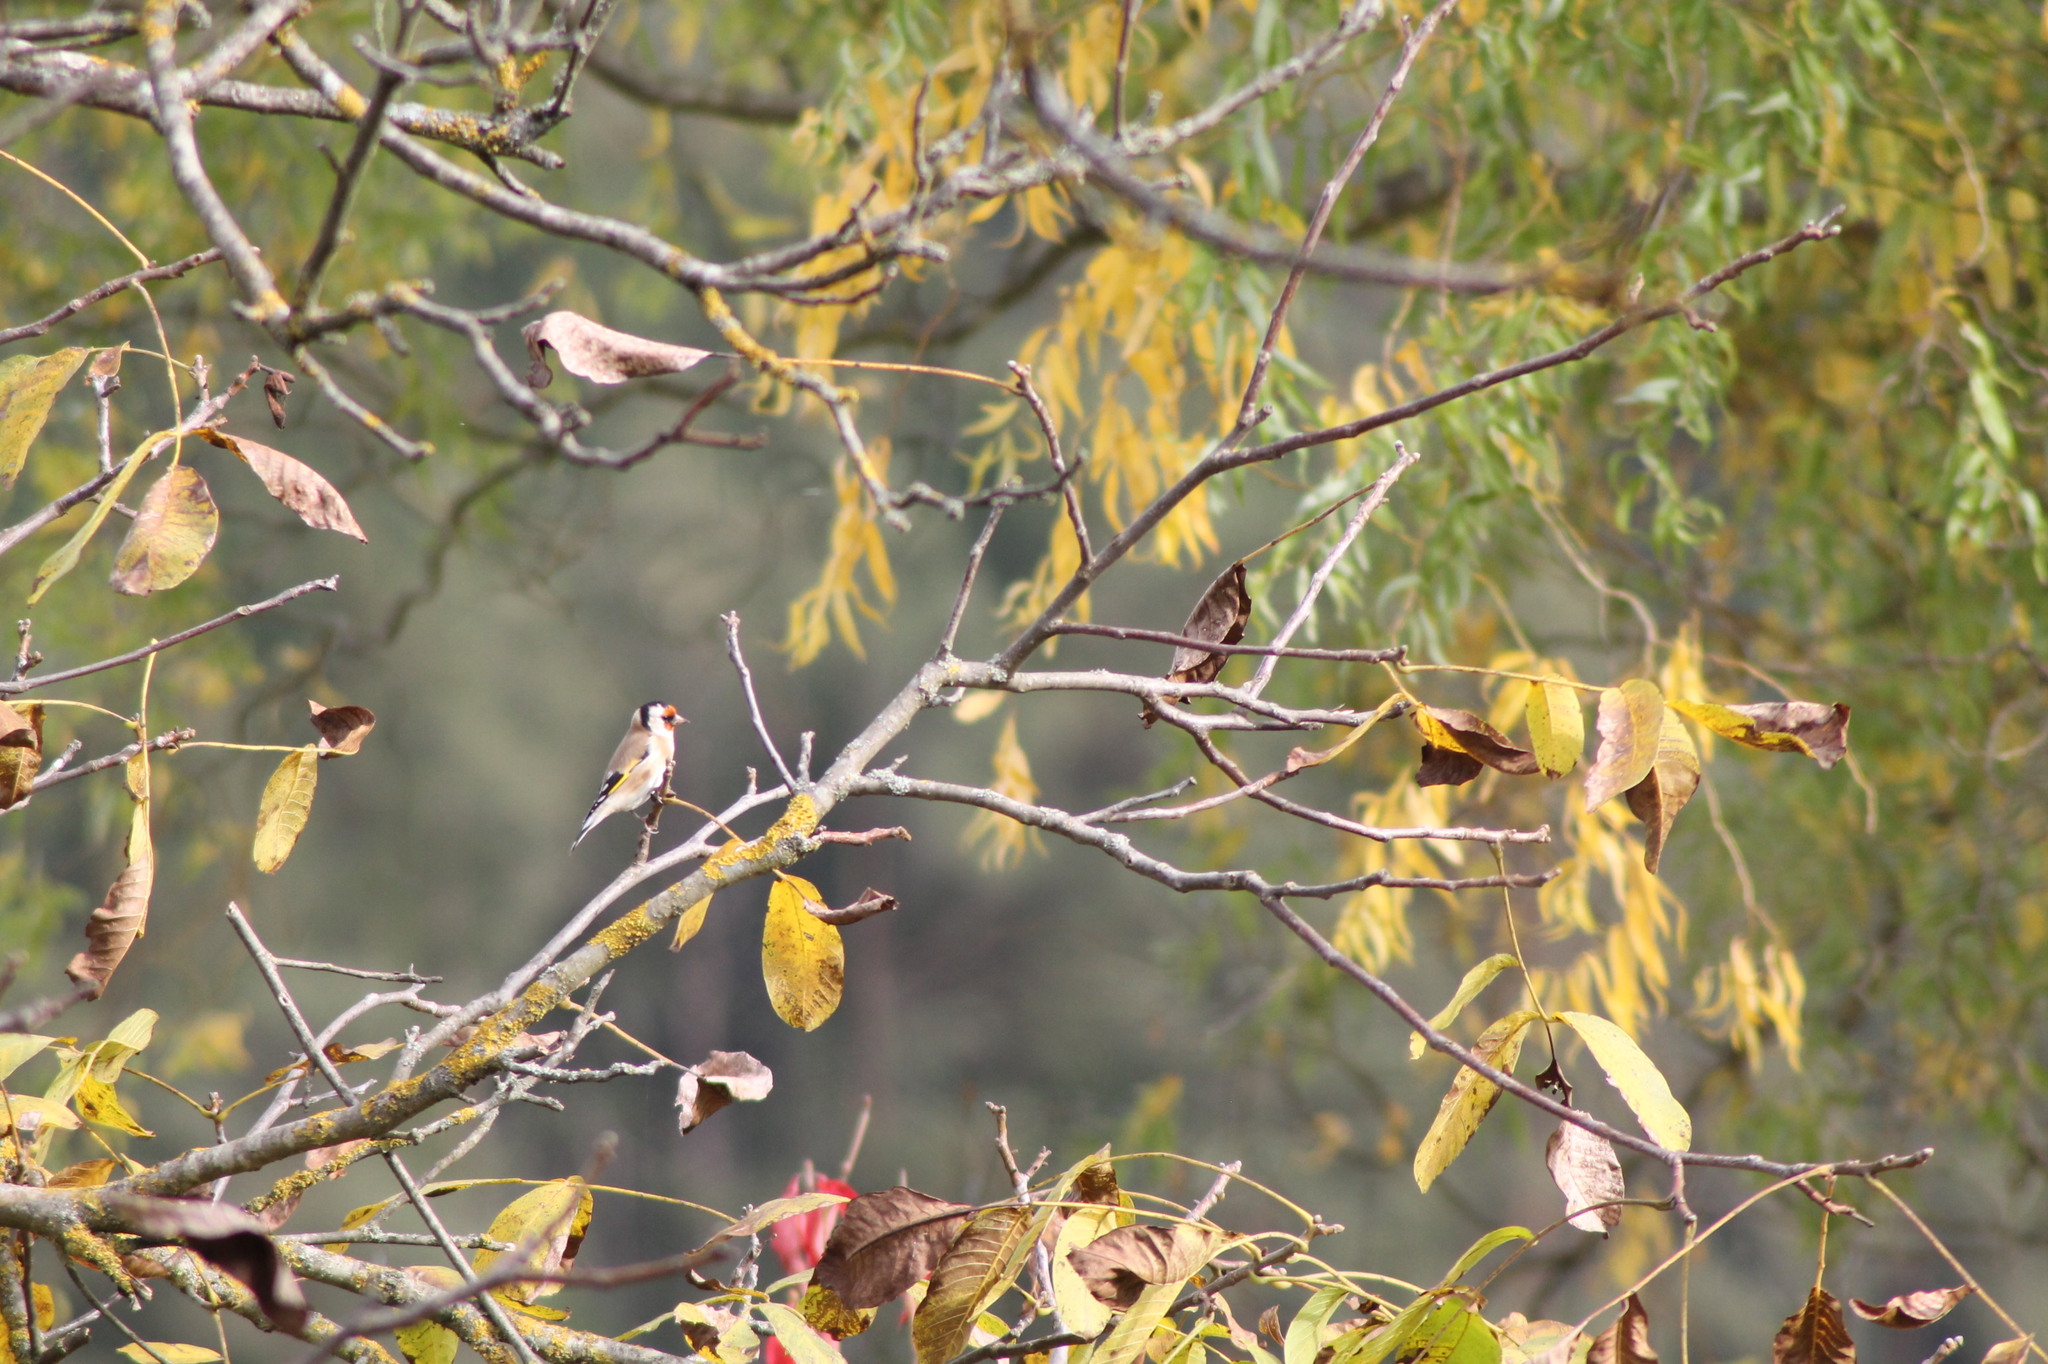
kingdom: Animalia
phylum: Chordata
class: Aves
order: Passeriformes
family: Fringillidae
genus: Carduelis
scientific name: Carduelis carduelis
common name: European goldfinch
